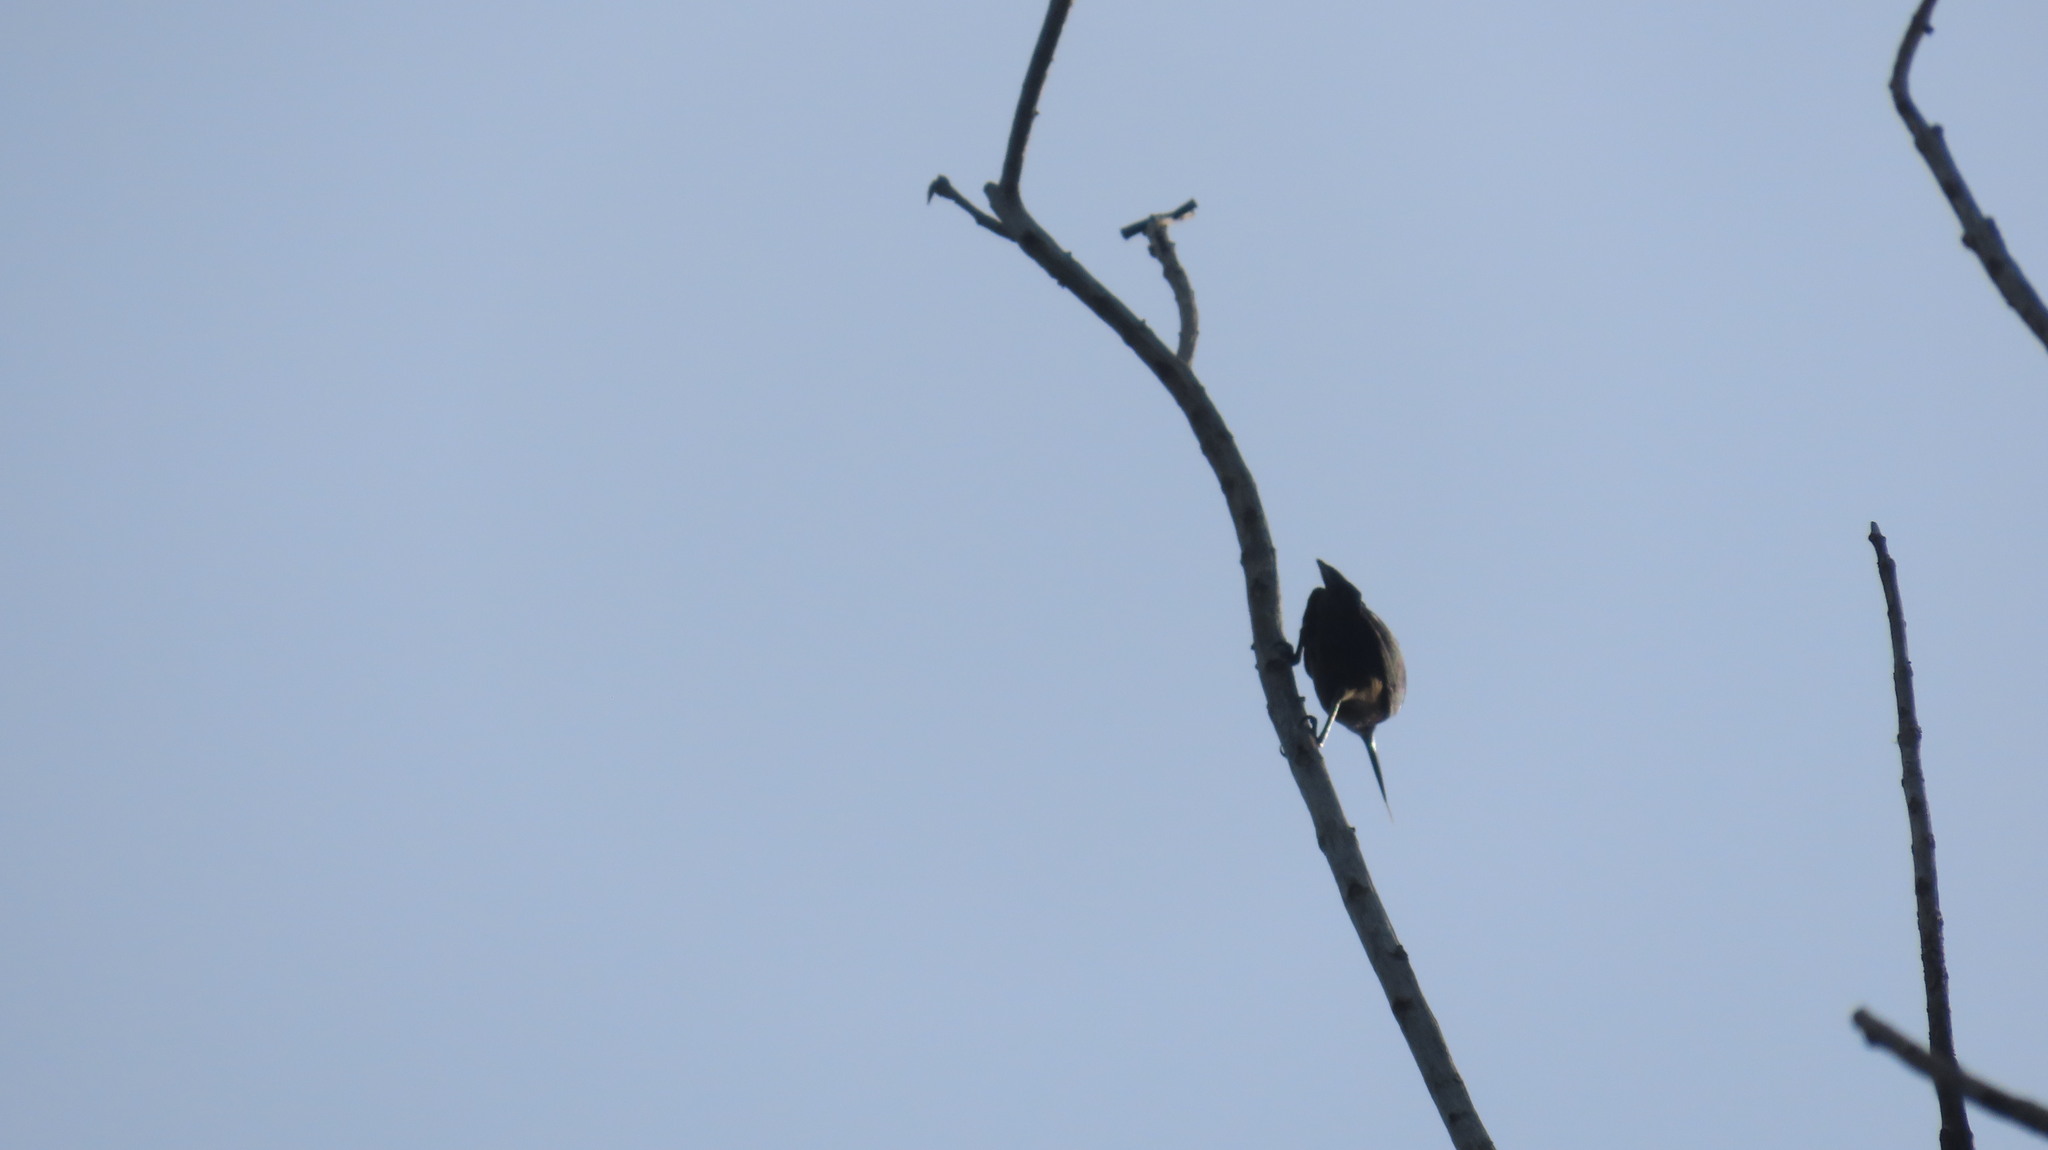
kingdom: Animalia
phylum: Chordata
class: Aves
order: Passeriformes
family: Nectariniidae
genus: Cinnyris
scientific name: Cinnyris lotenius
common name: Loten's sunbird
